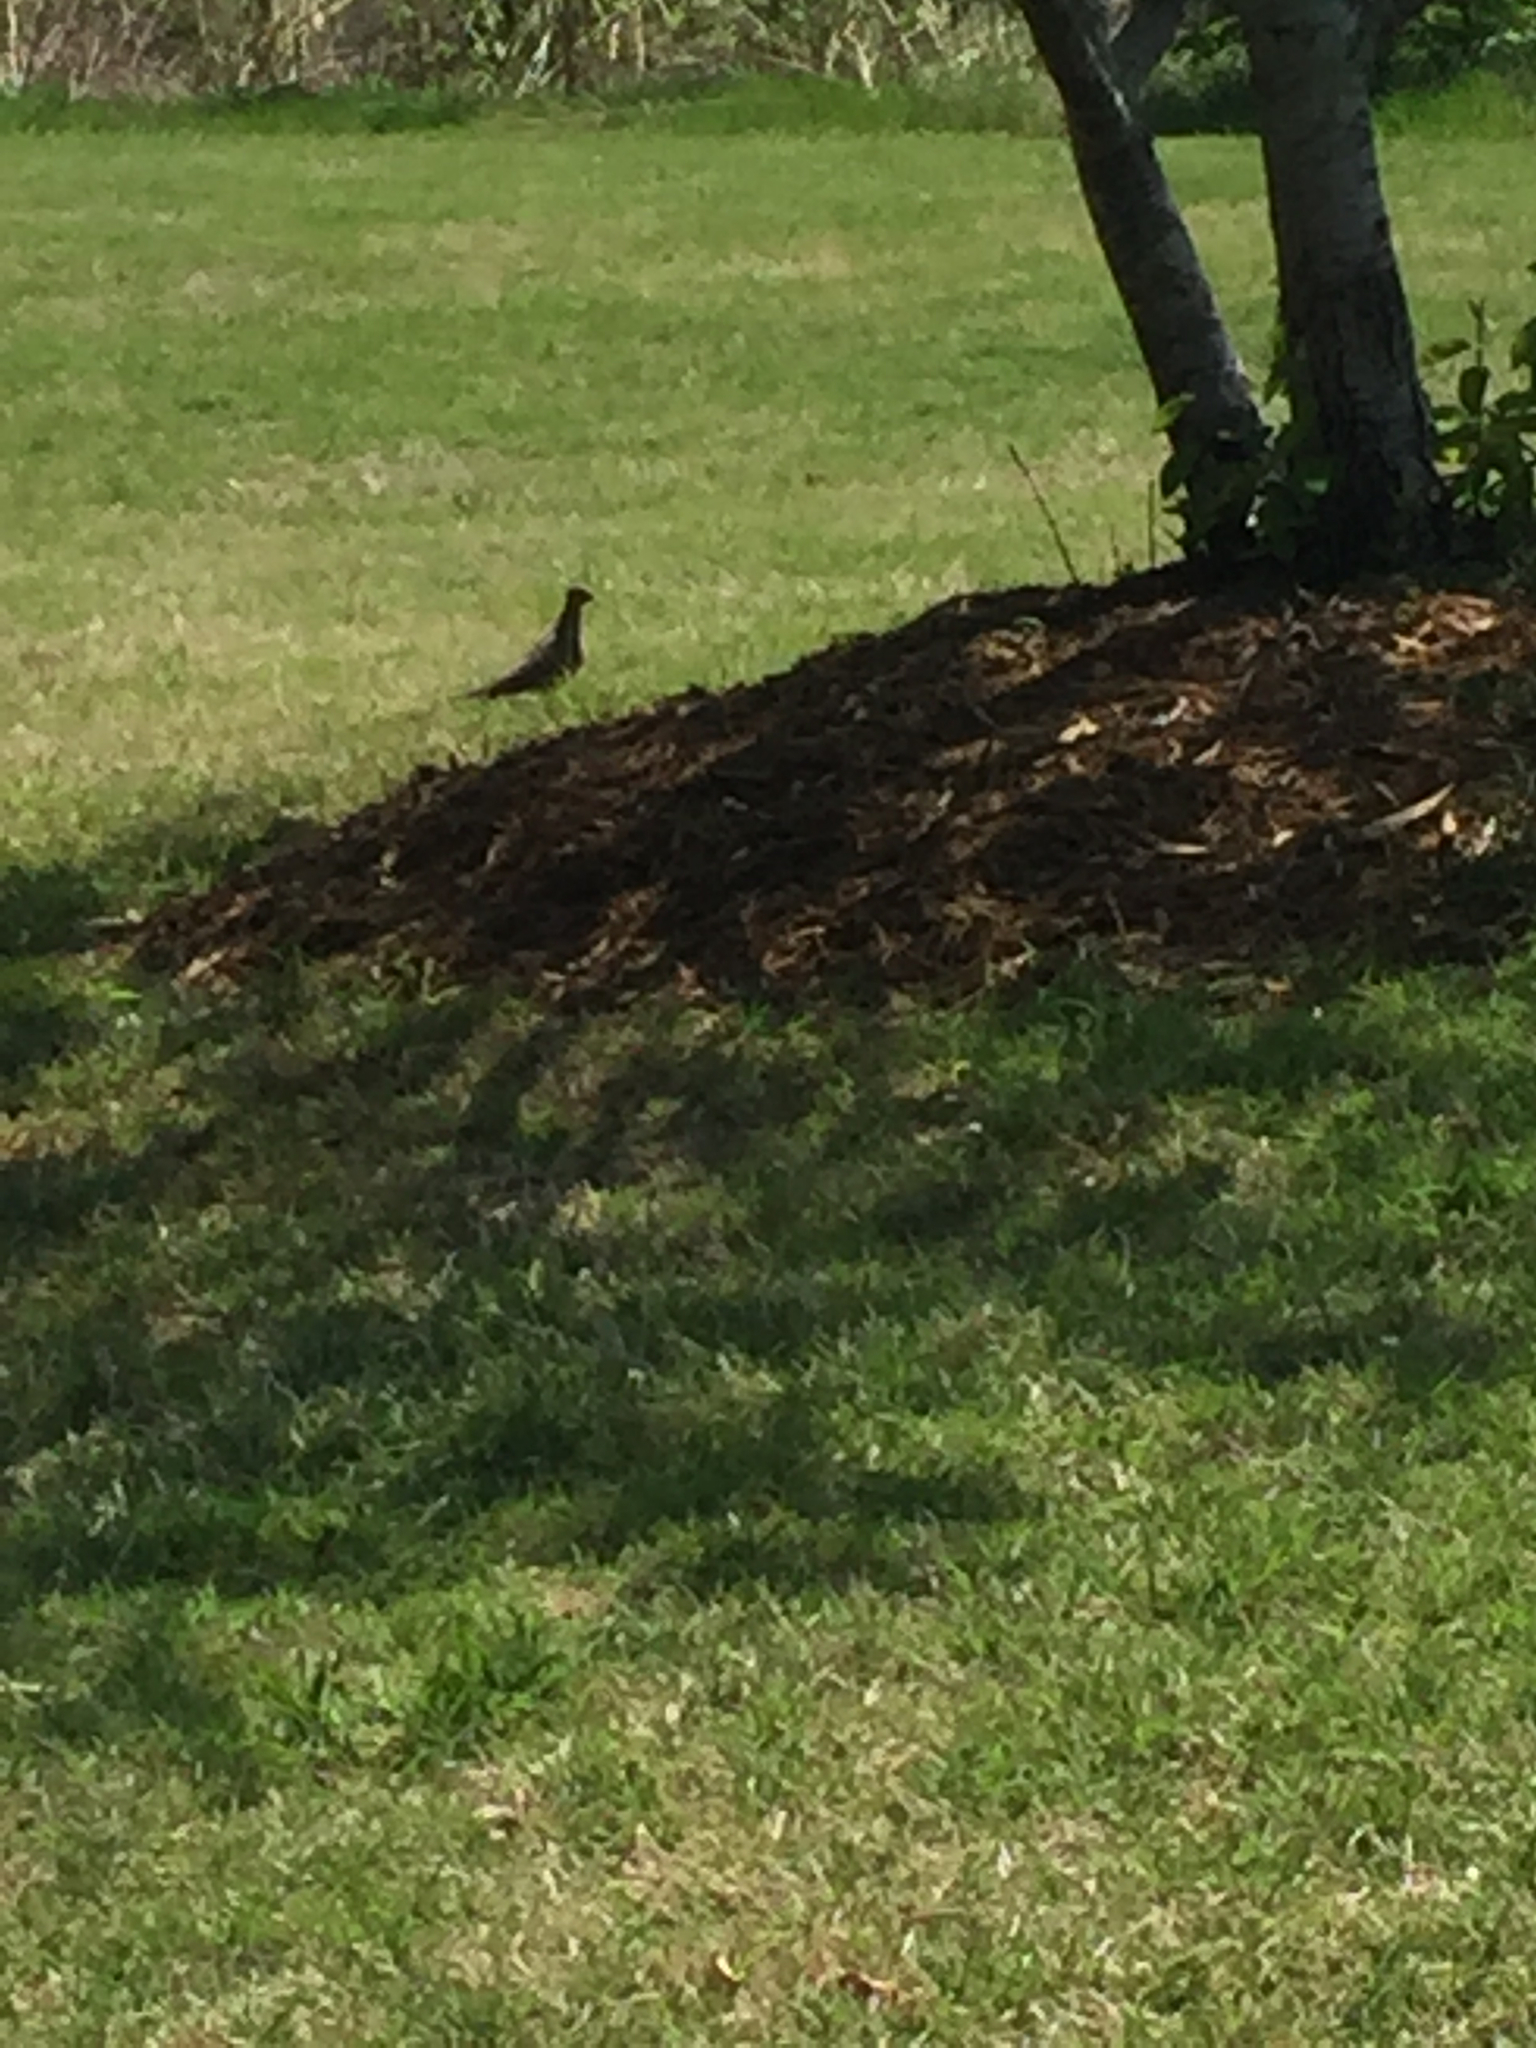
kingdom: Animalia
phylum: Chordata
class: Aves
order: Columbiformes
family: Columbidae
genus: Zenaida
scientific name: Zenaida macroura
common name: Mourning dove
